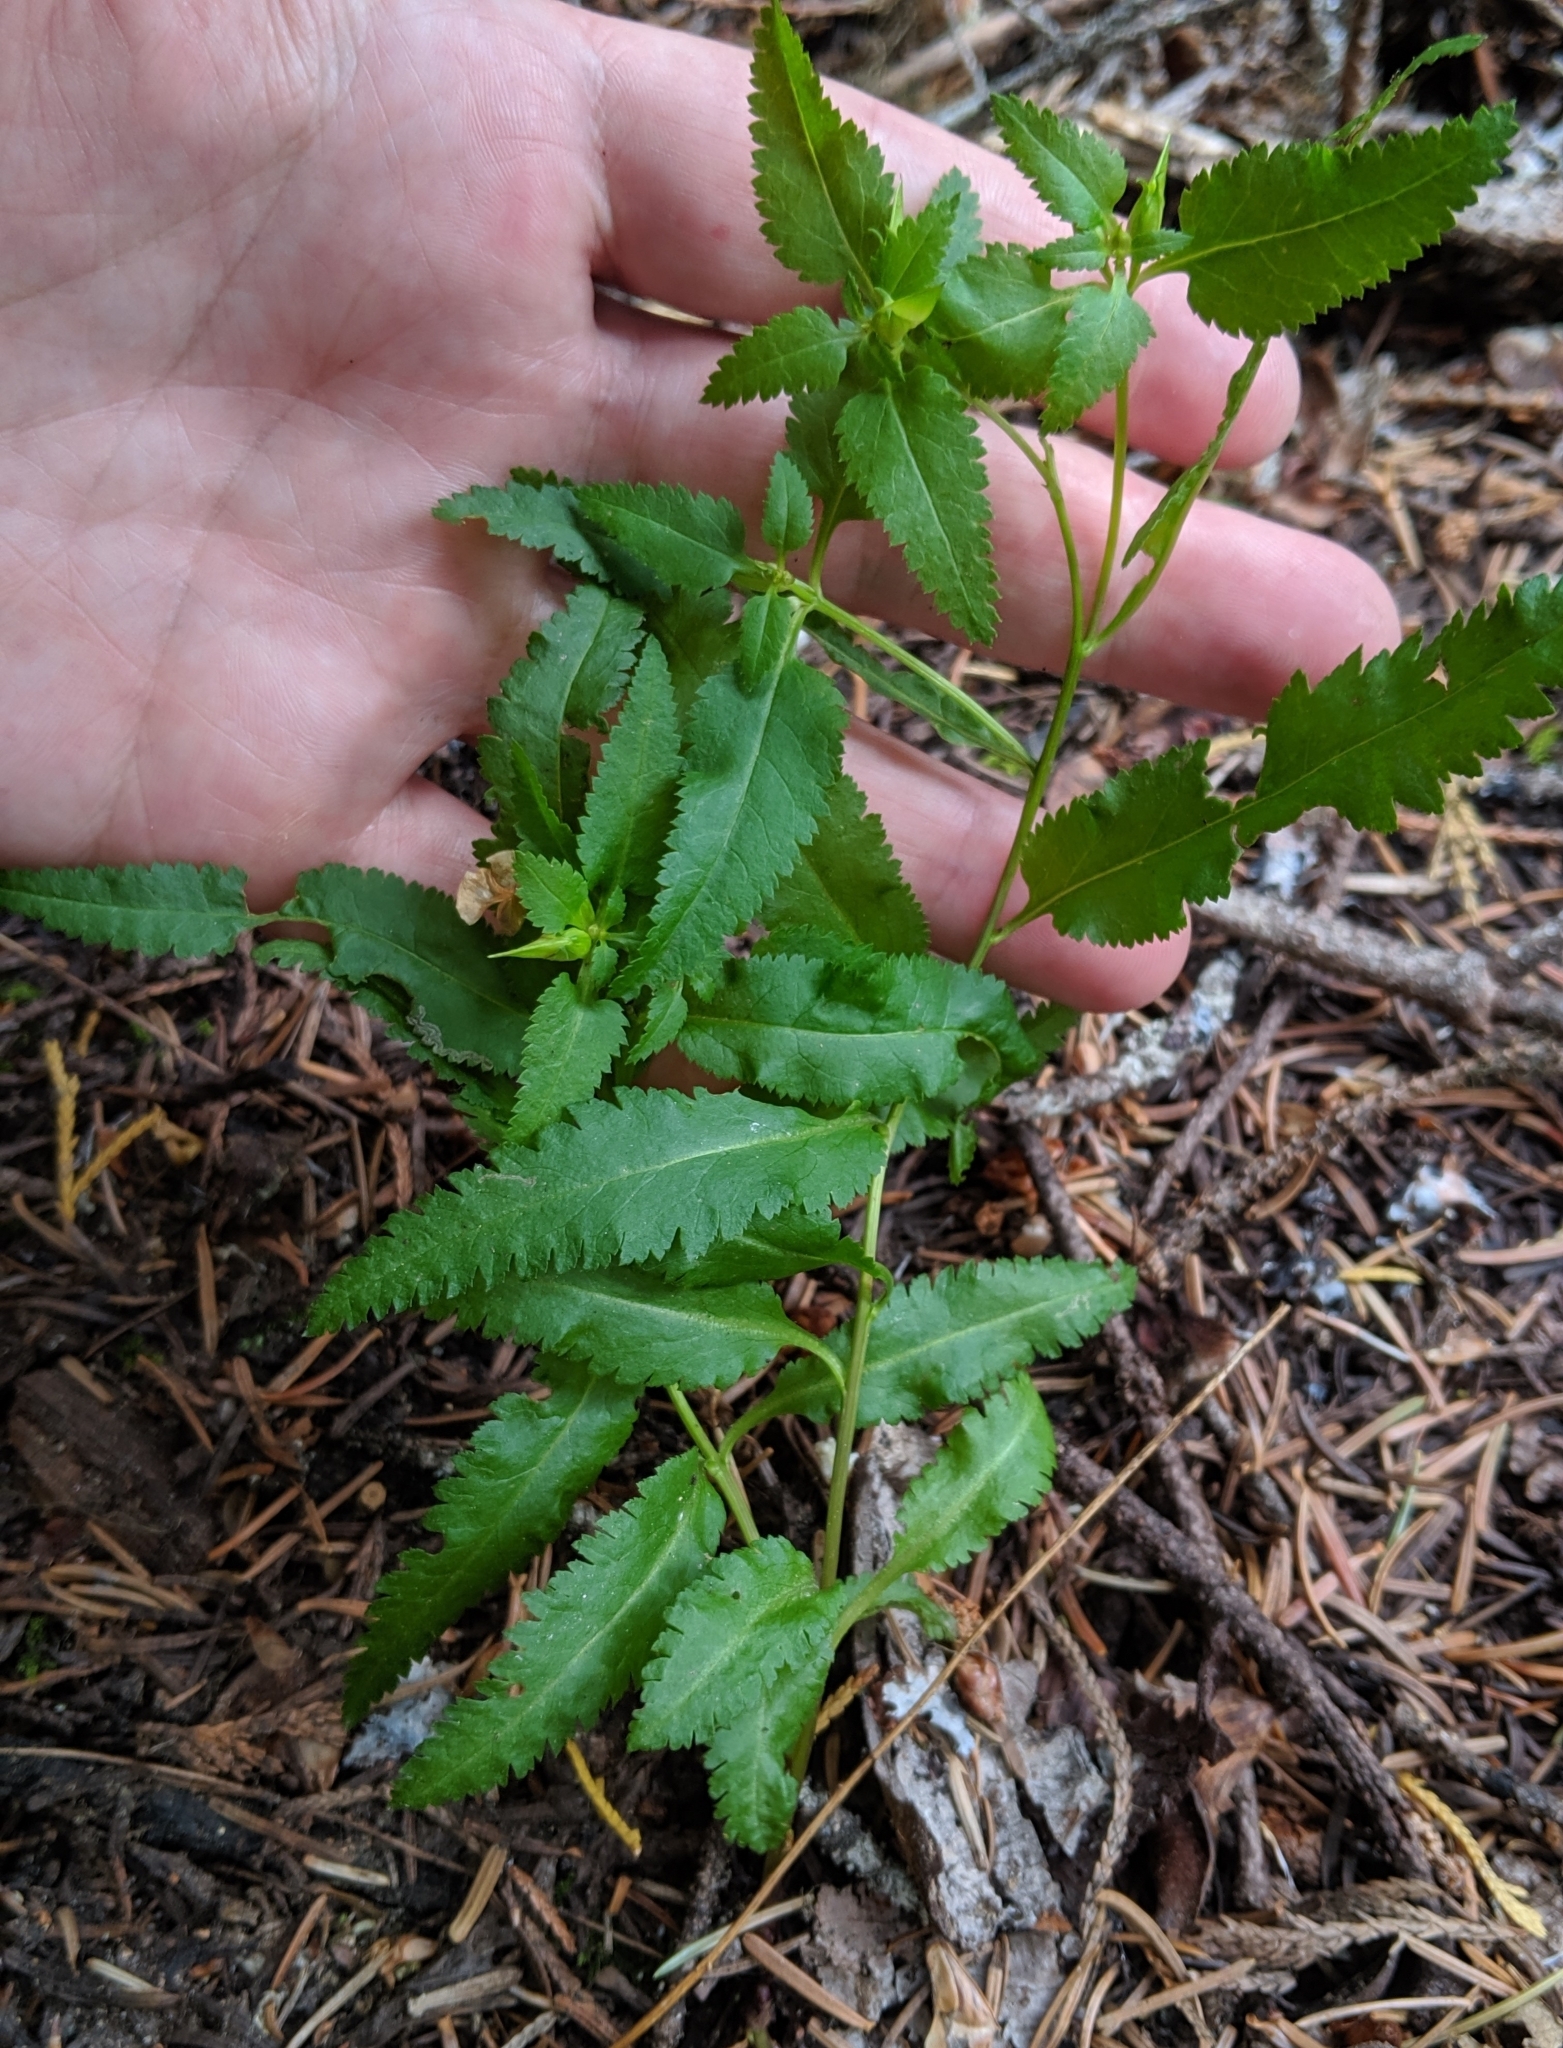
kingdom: Plantae
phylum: Tracheophyta
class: Magnoliopsida
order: Asterales
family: Asteraceae
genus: Senecio
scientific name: Senecio triangularis
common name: Arrowleaf butterweed
